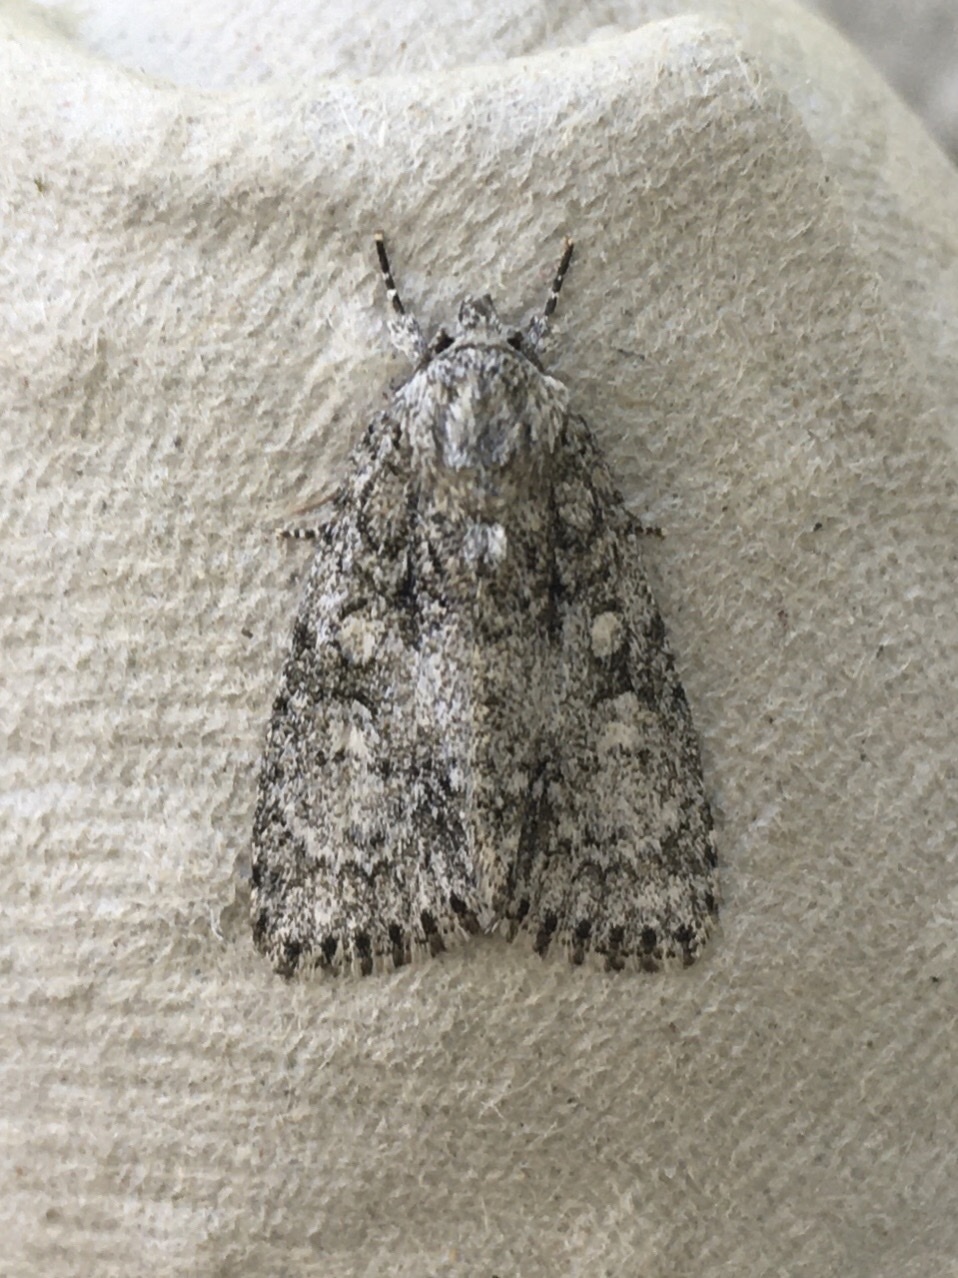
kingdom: Animalia
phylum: Arthropoda
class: Insecta
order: Lepidoptera
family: Noctuidae
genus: Acronicta
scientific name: Acronicta retardata
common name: Maple dagger
